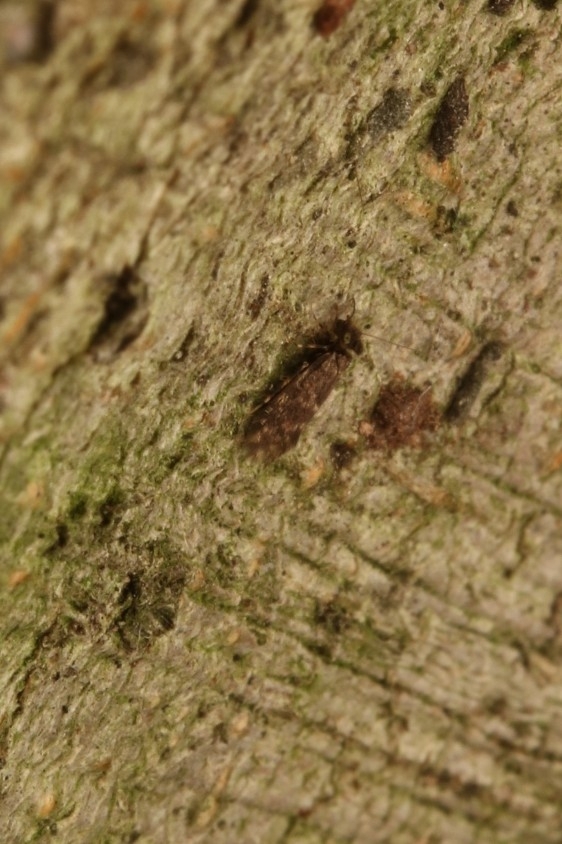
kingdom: Animalia
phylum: Arthropoda
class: Insecta
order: Psocodea
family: Lepidopsocidae
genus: Echmepteryx
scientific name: Echmepteryx hageni
